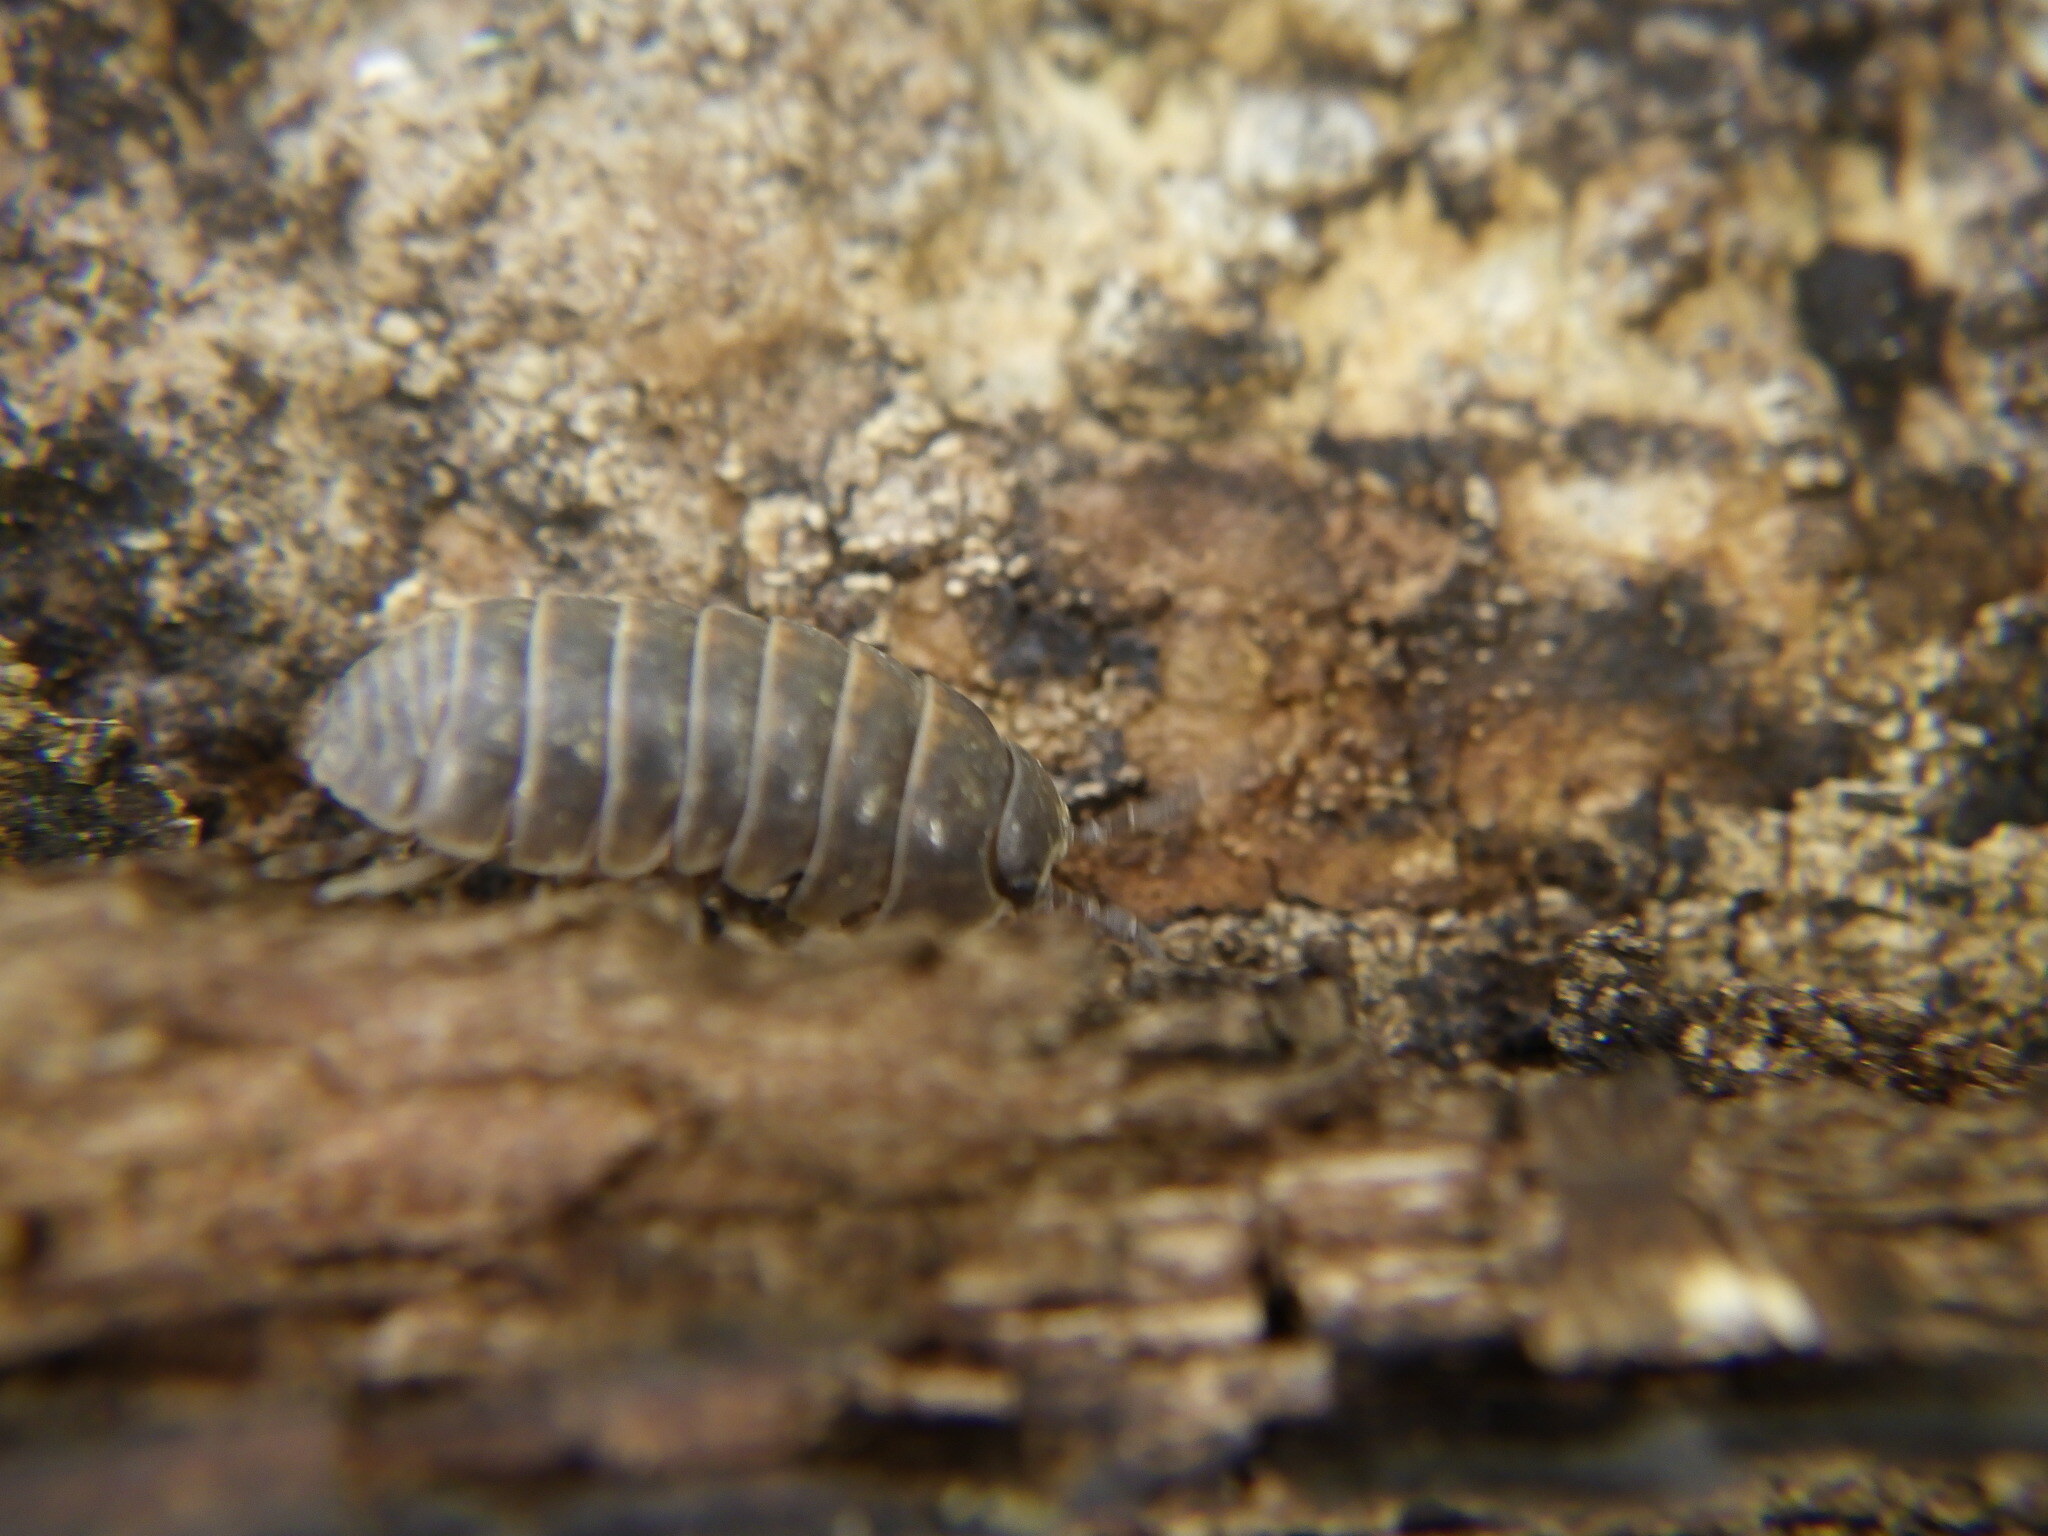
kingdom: Animalia
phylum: Arthropoda
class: Malacostraca
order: Isopoda
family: Armadillidiidae
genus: Armadillidium
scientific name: Armadillidium vulgare
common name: Common pill woodlouse
